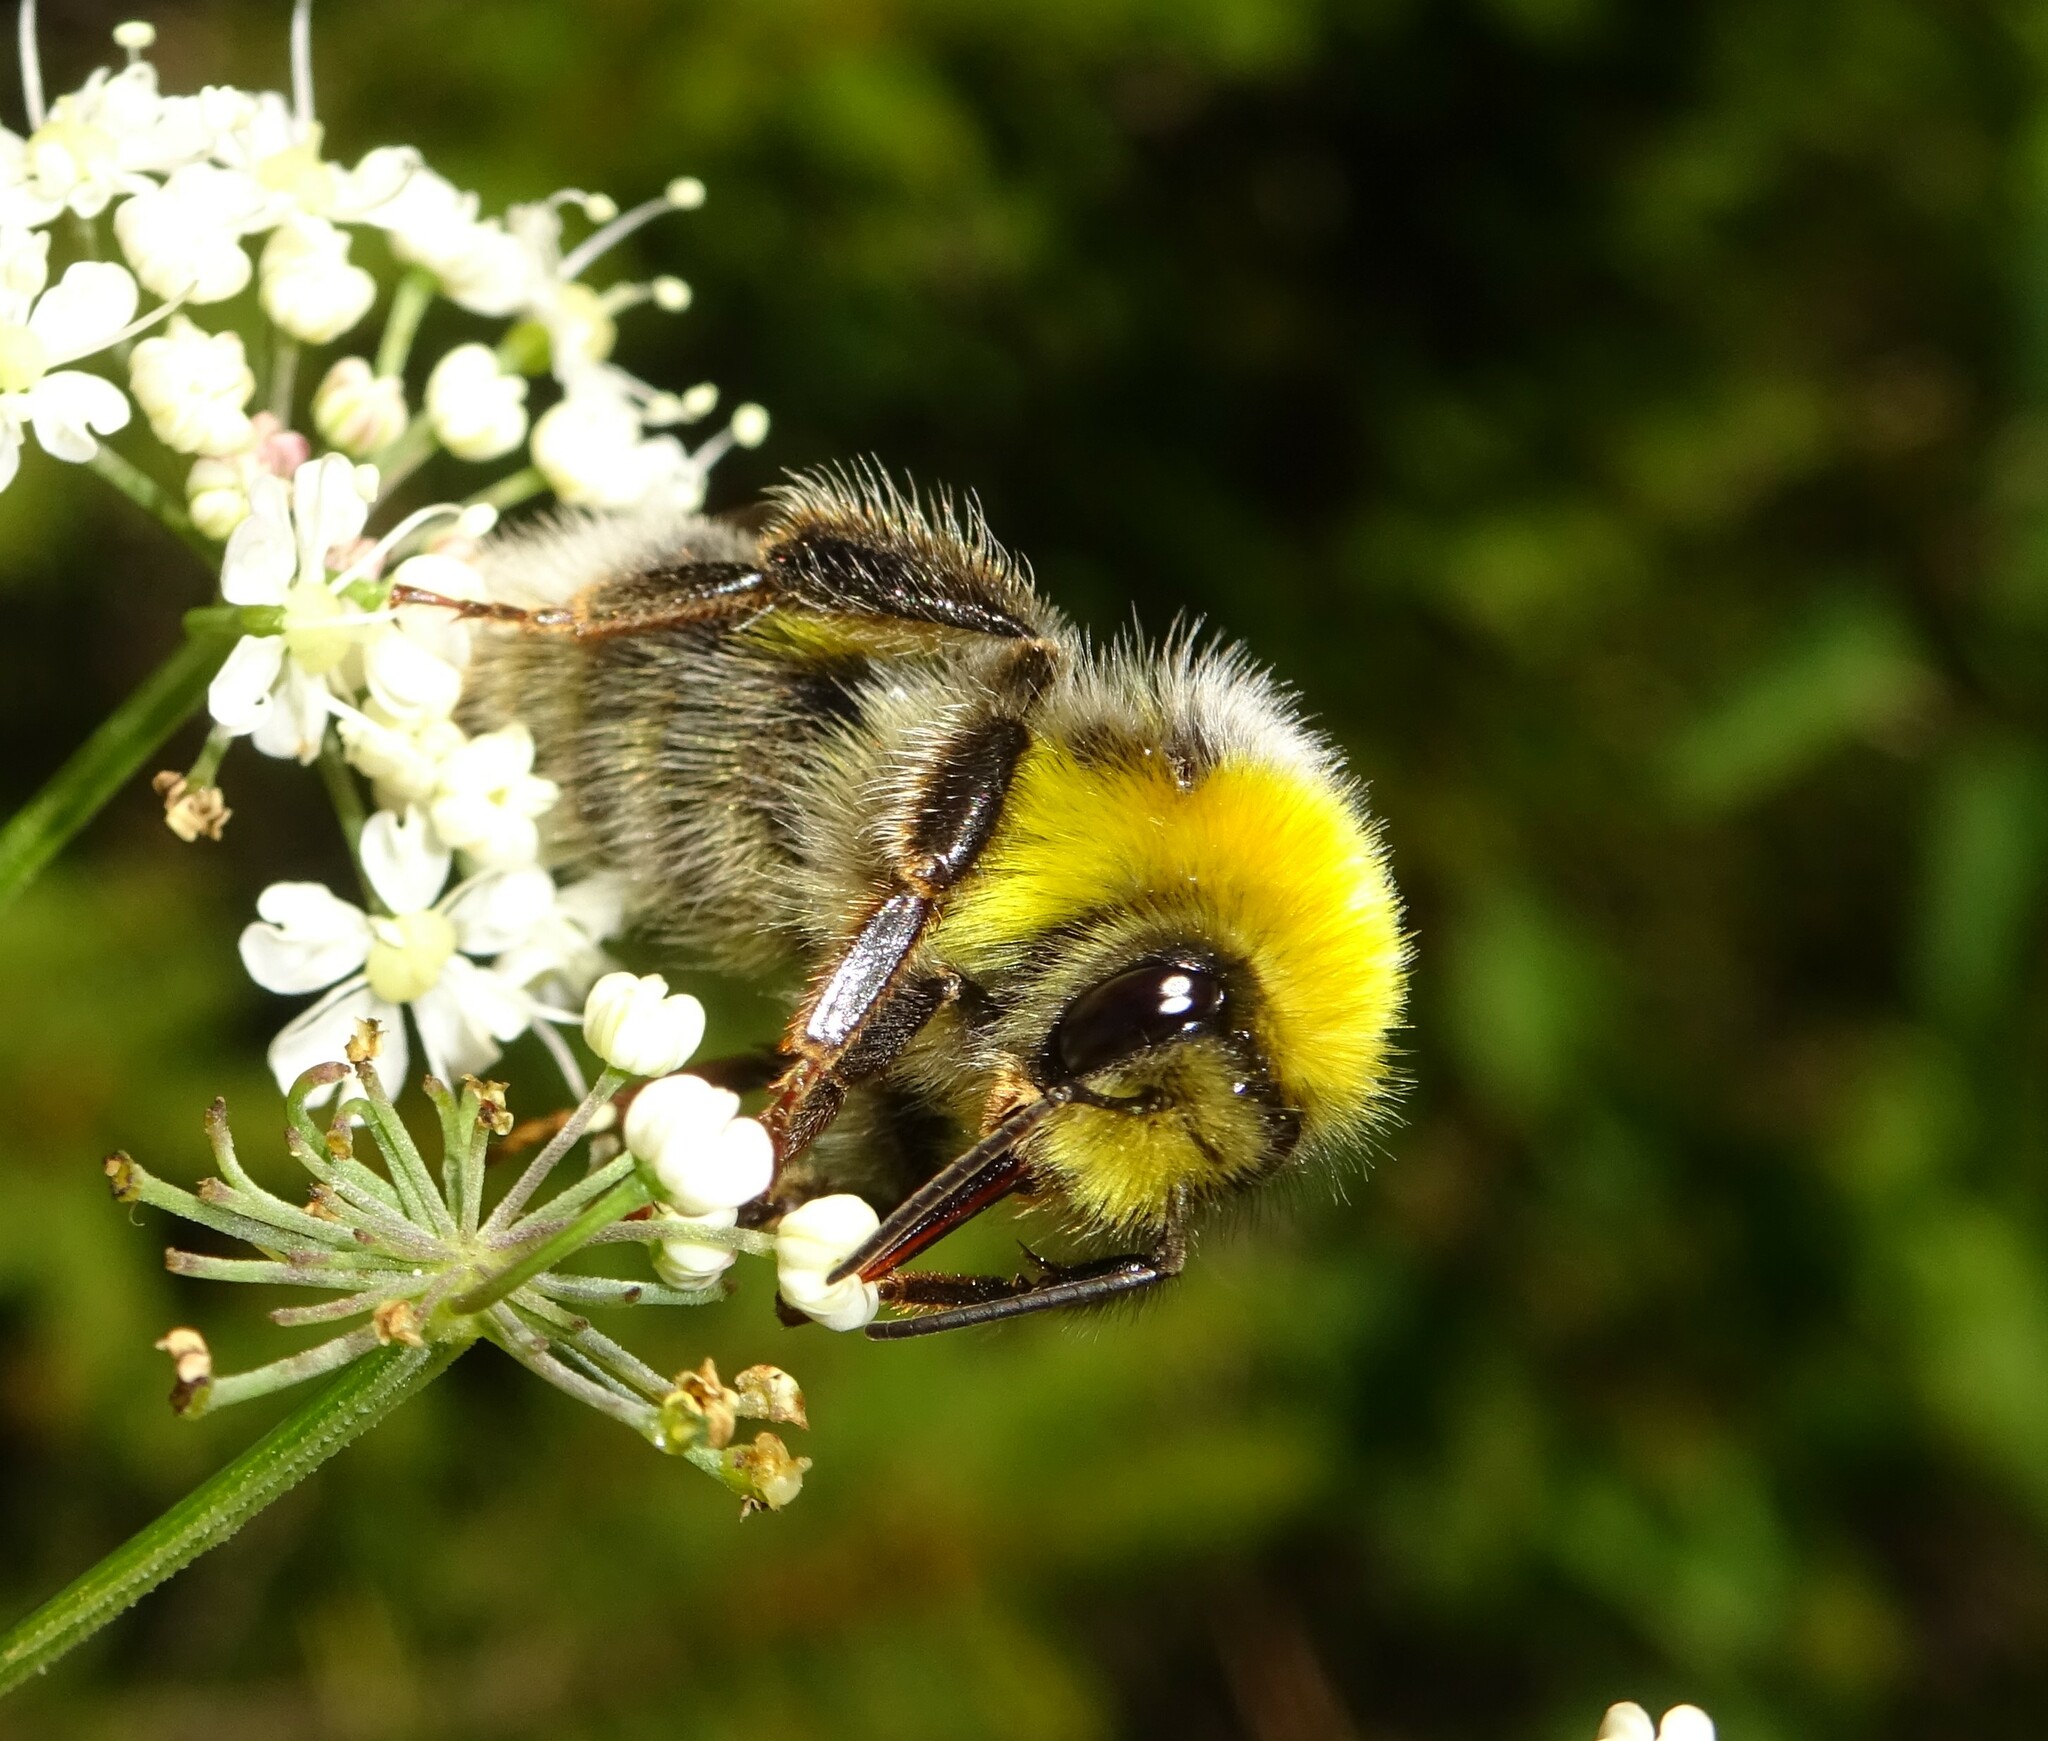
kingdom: Animalia
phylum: Arthropoda
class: Insecta
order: Hymenoptera
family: Apidae
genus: Bombus
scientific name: Bombus lucorum
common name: White-tailed bumblebee
